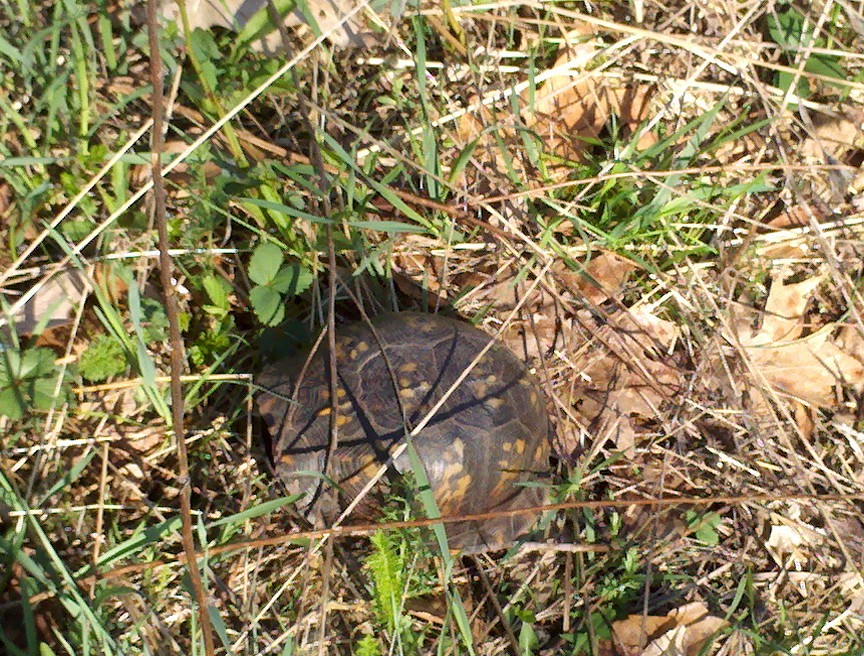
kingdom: Animalia
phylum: Chordata
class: Testudines
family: Emydidae
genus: Terrapene
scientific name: Terrapene carolina
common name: Common box turtle
